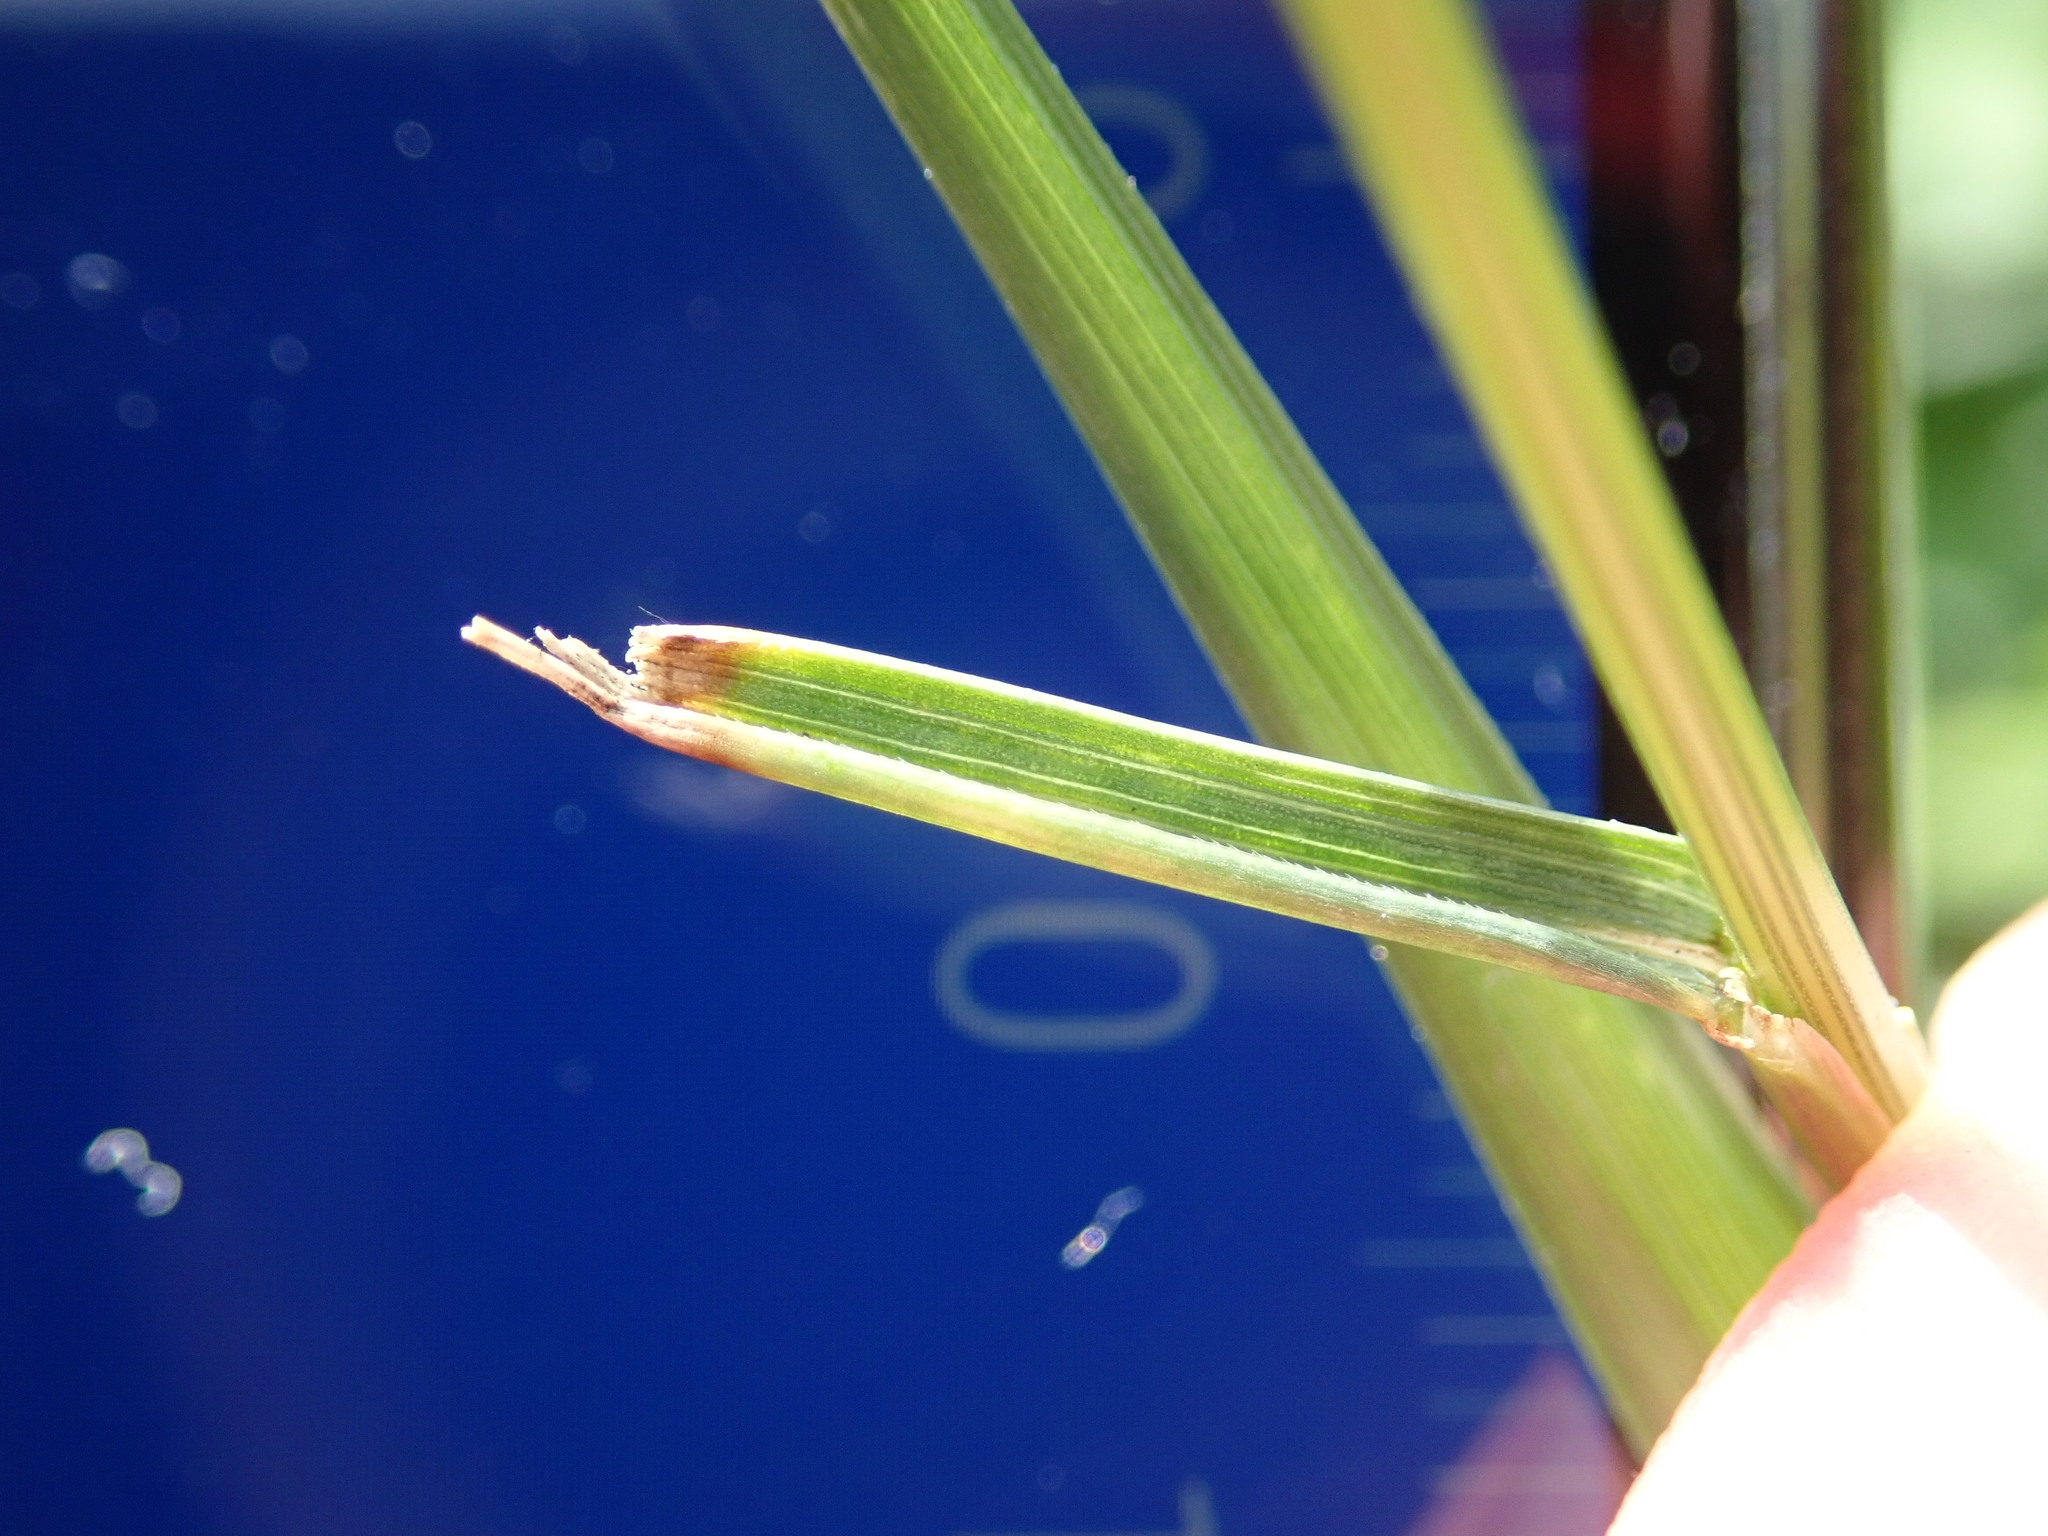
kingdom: Plantae
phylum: Tracheophyta
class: Liliopsida
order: Poales
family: Poaceae
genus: Lolium
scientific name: Lolium arundinaceum
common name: Reed fescue
